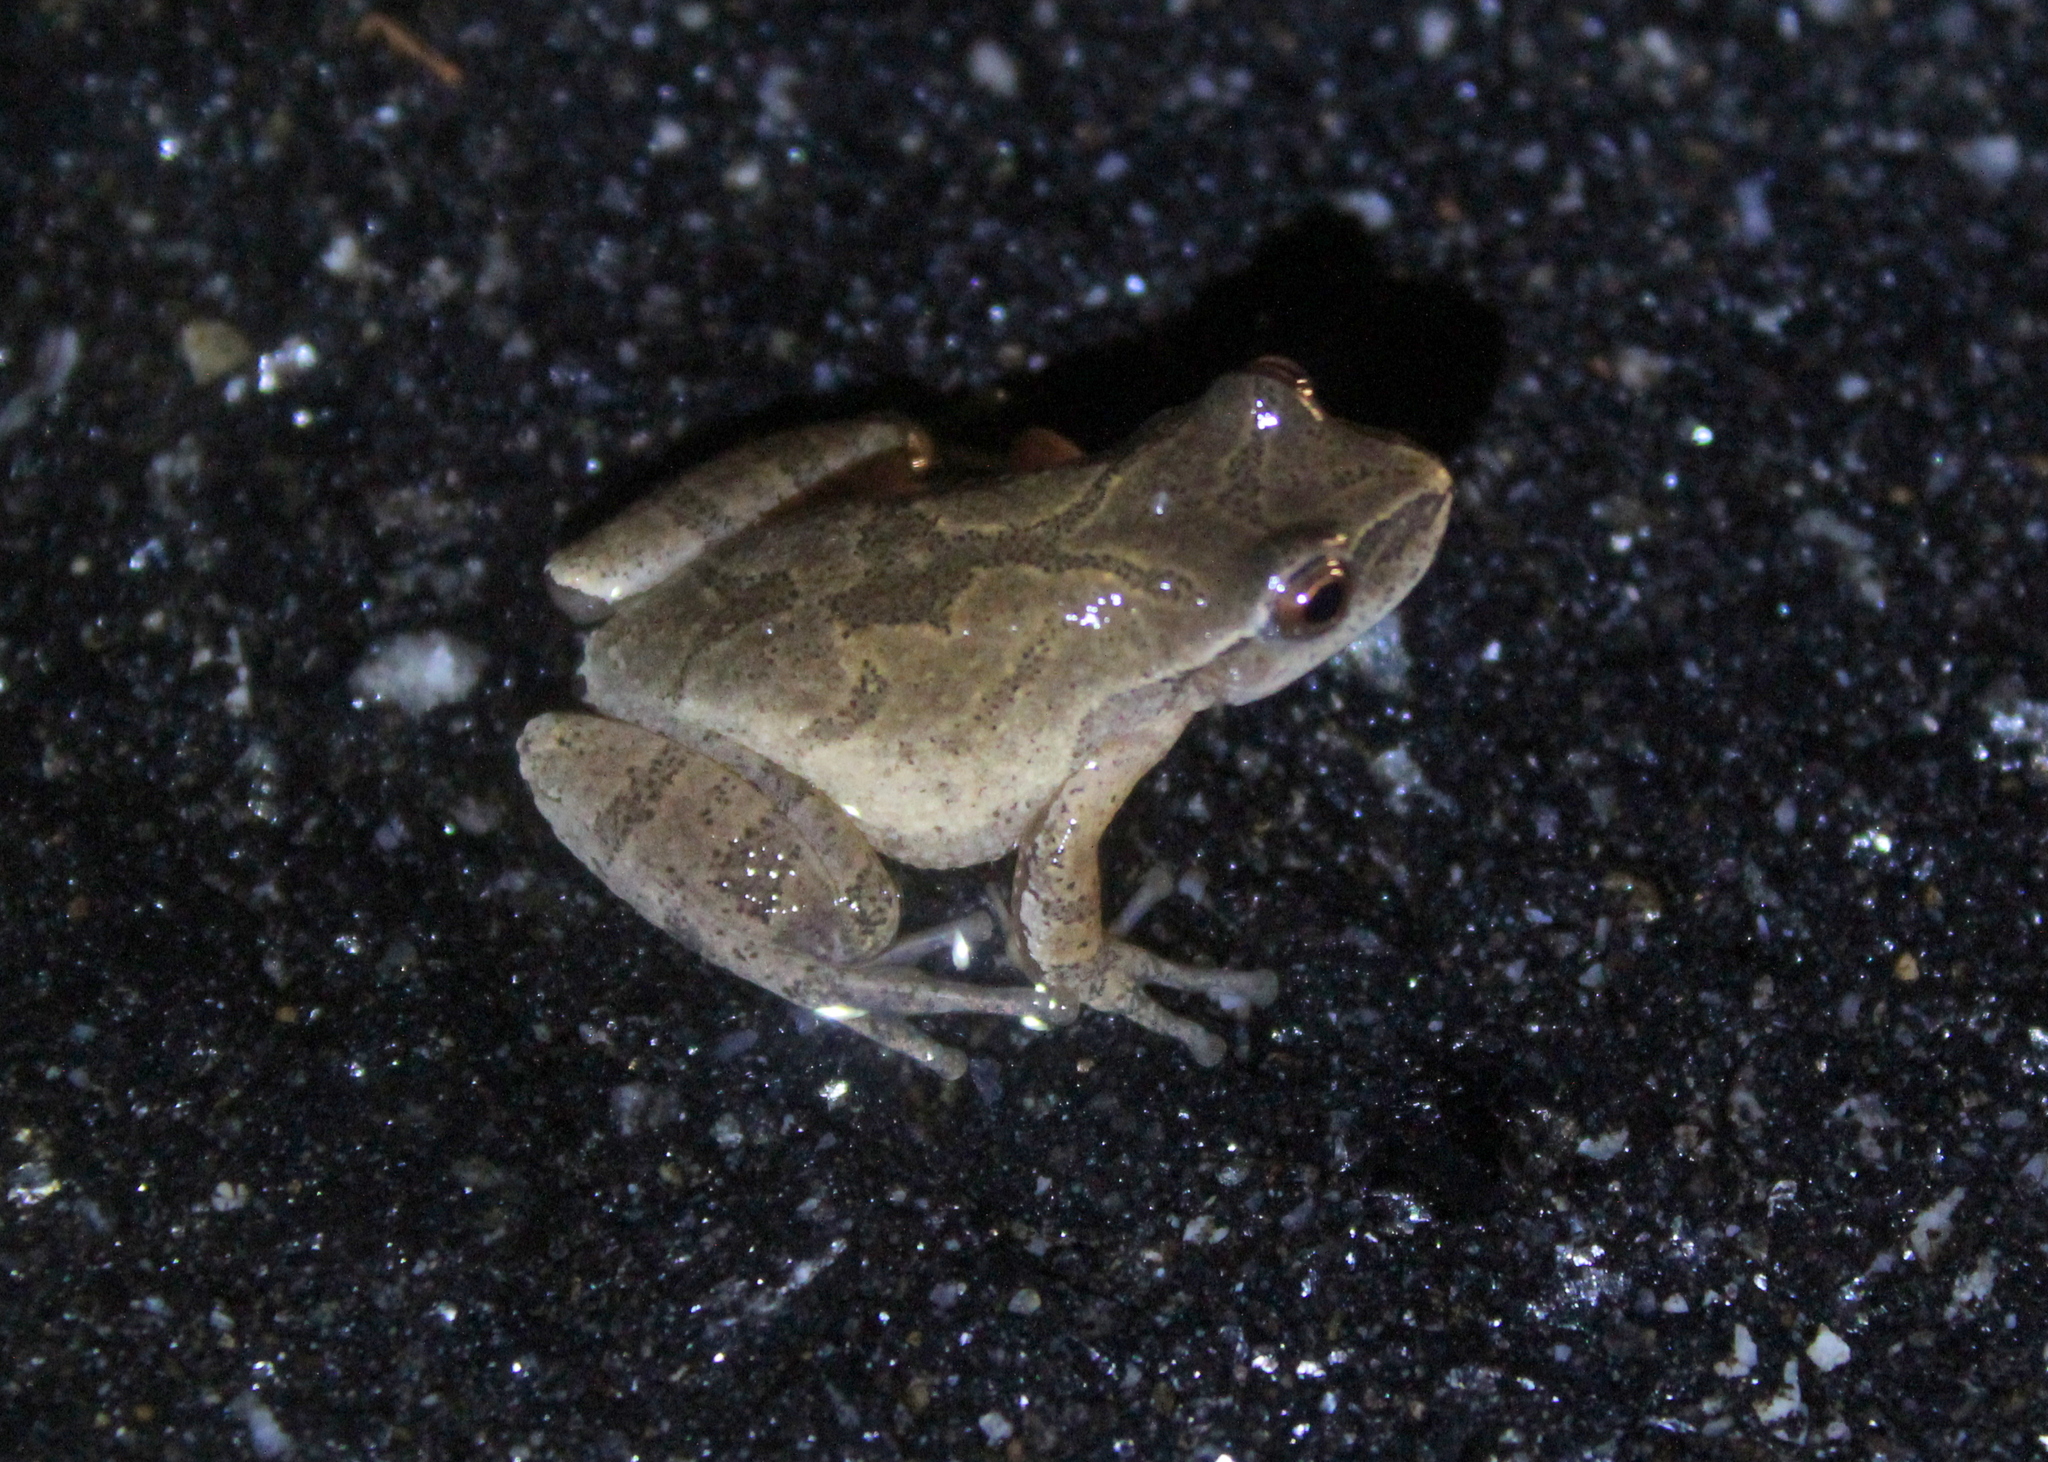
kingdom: Animalia
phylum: Chordata
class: Amphibia
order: Anura
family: Hylidae
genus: Pseudacris
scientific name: Pseudacris crucifer
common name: Spring peeper
